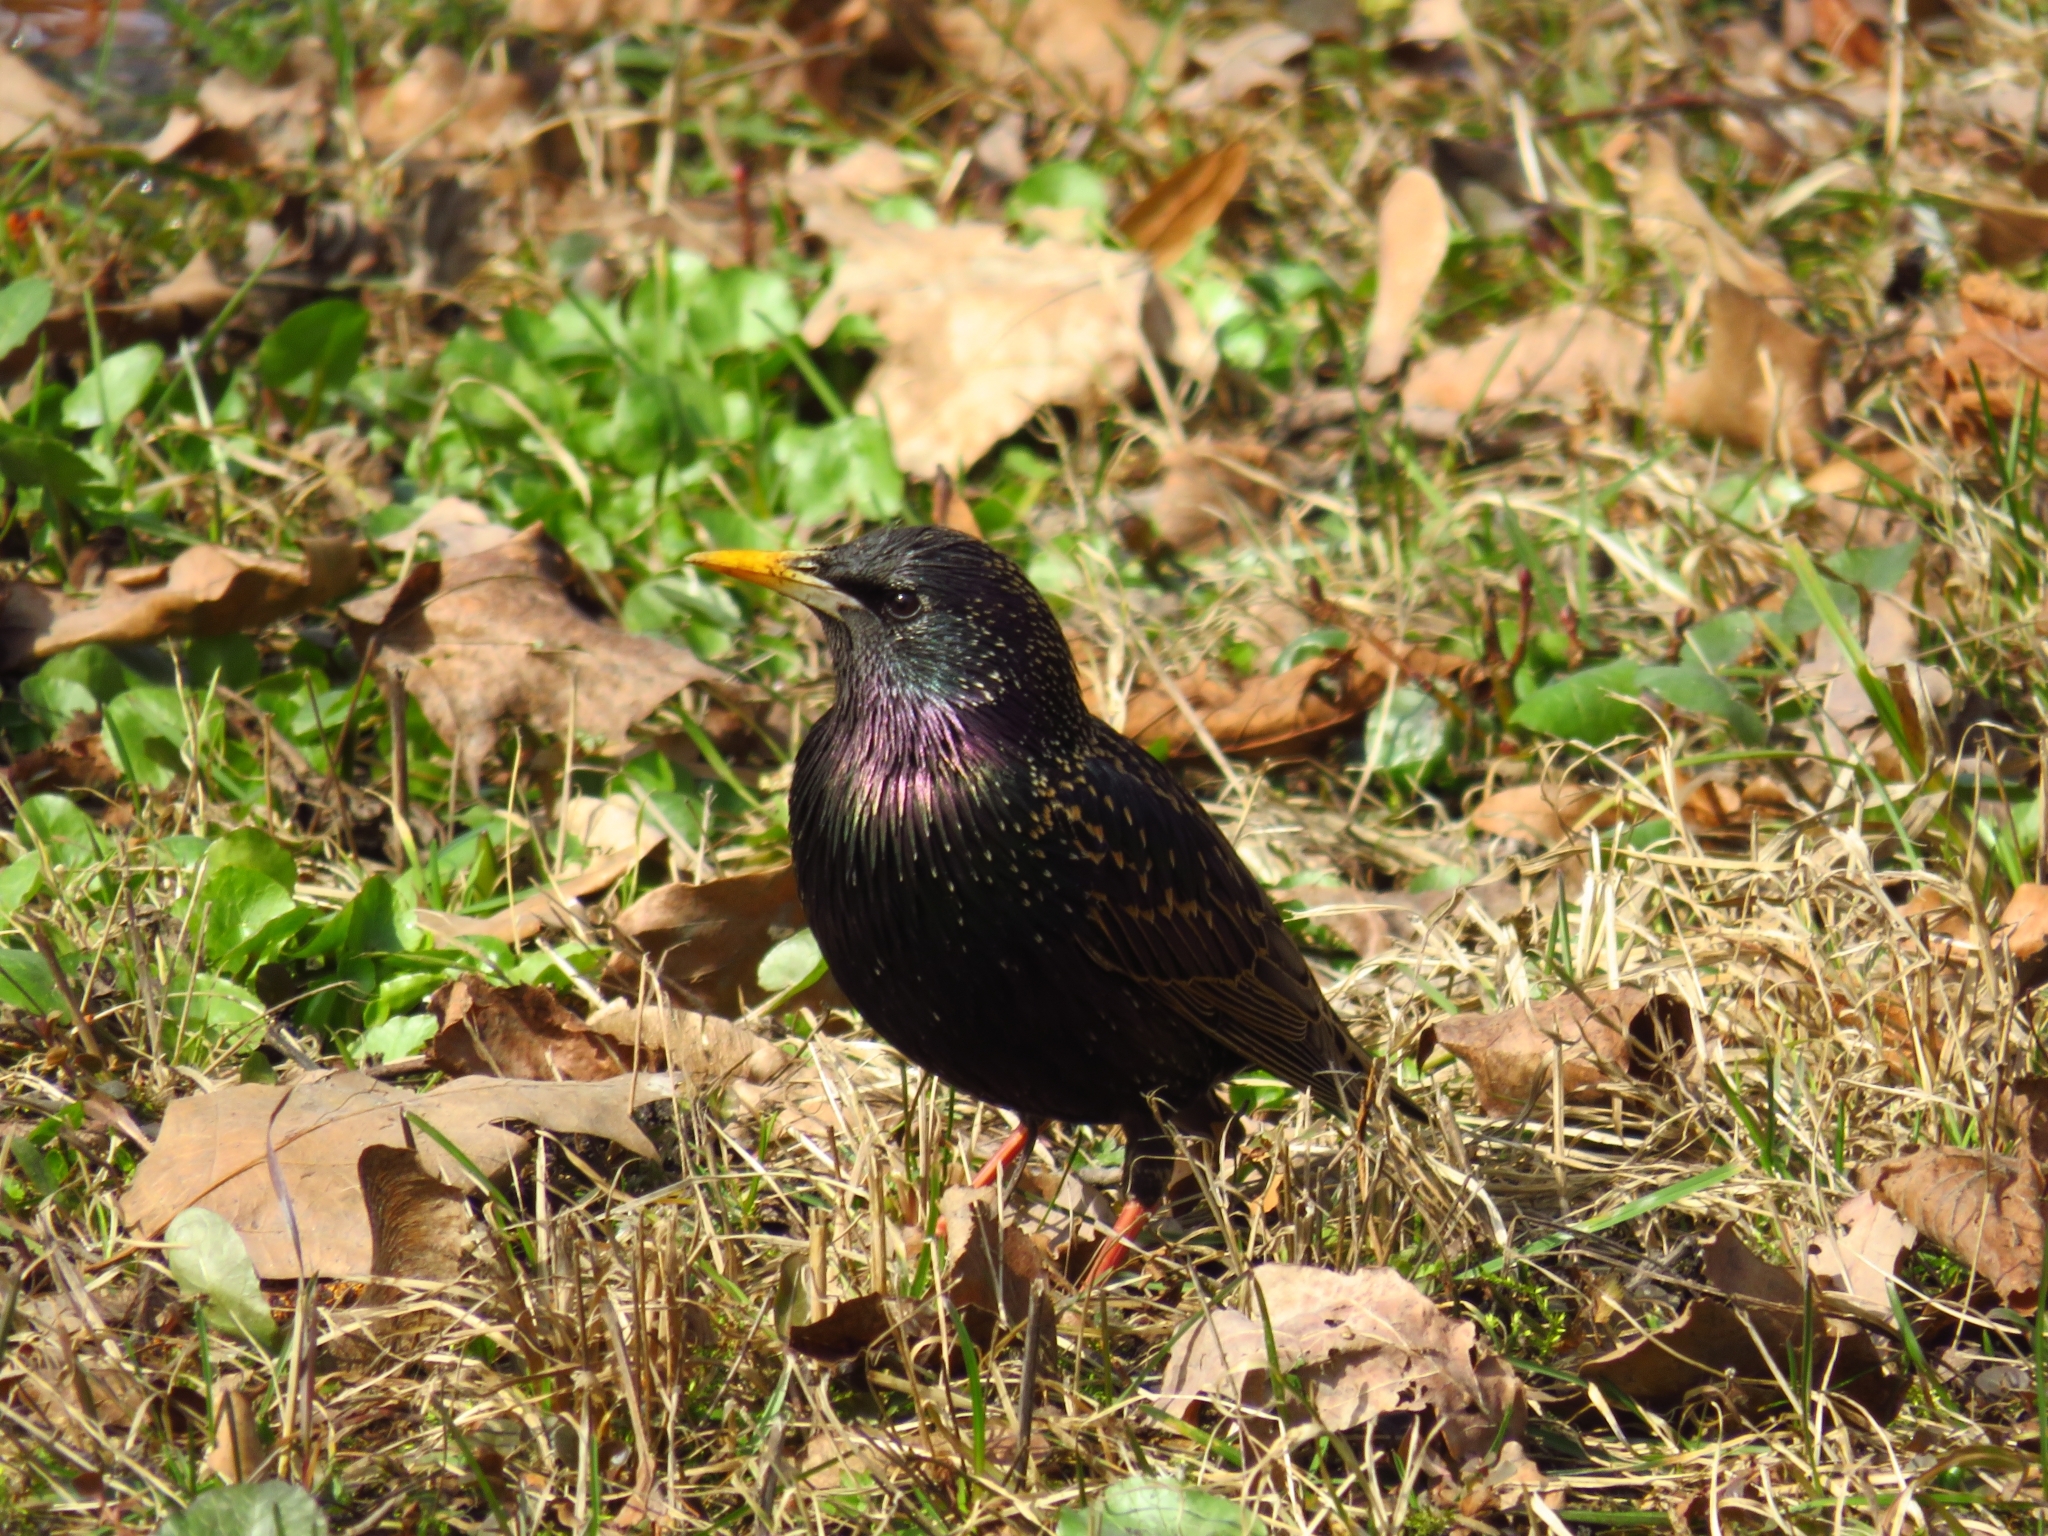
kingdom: Animalia
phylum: Chordata
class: Aves
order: Passeriformes
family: Sturnidae
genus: Sturnus
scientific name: Sturnus vulgaris
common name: Common starling
